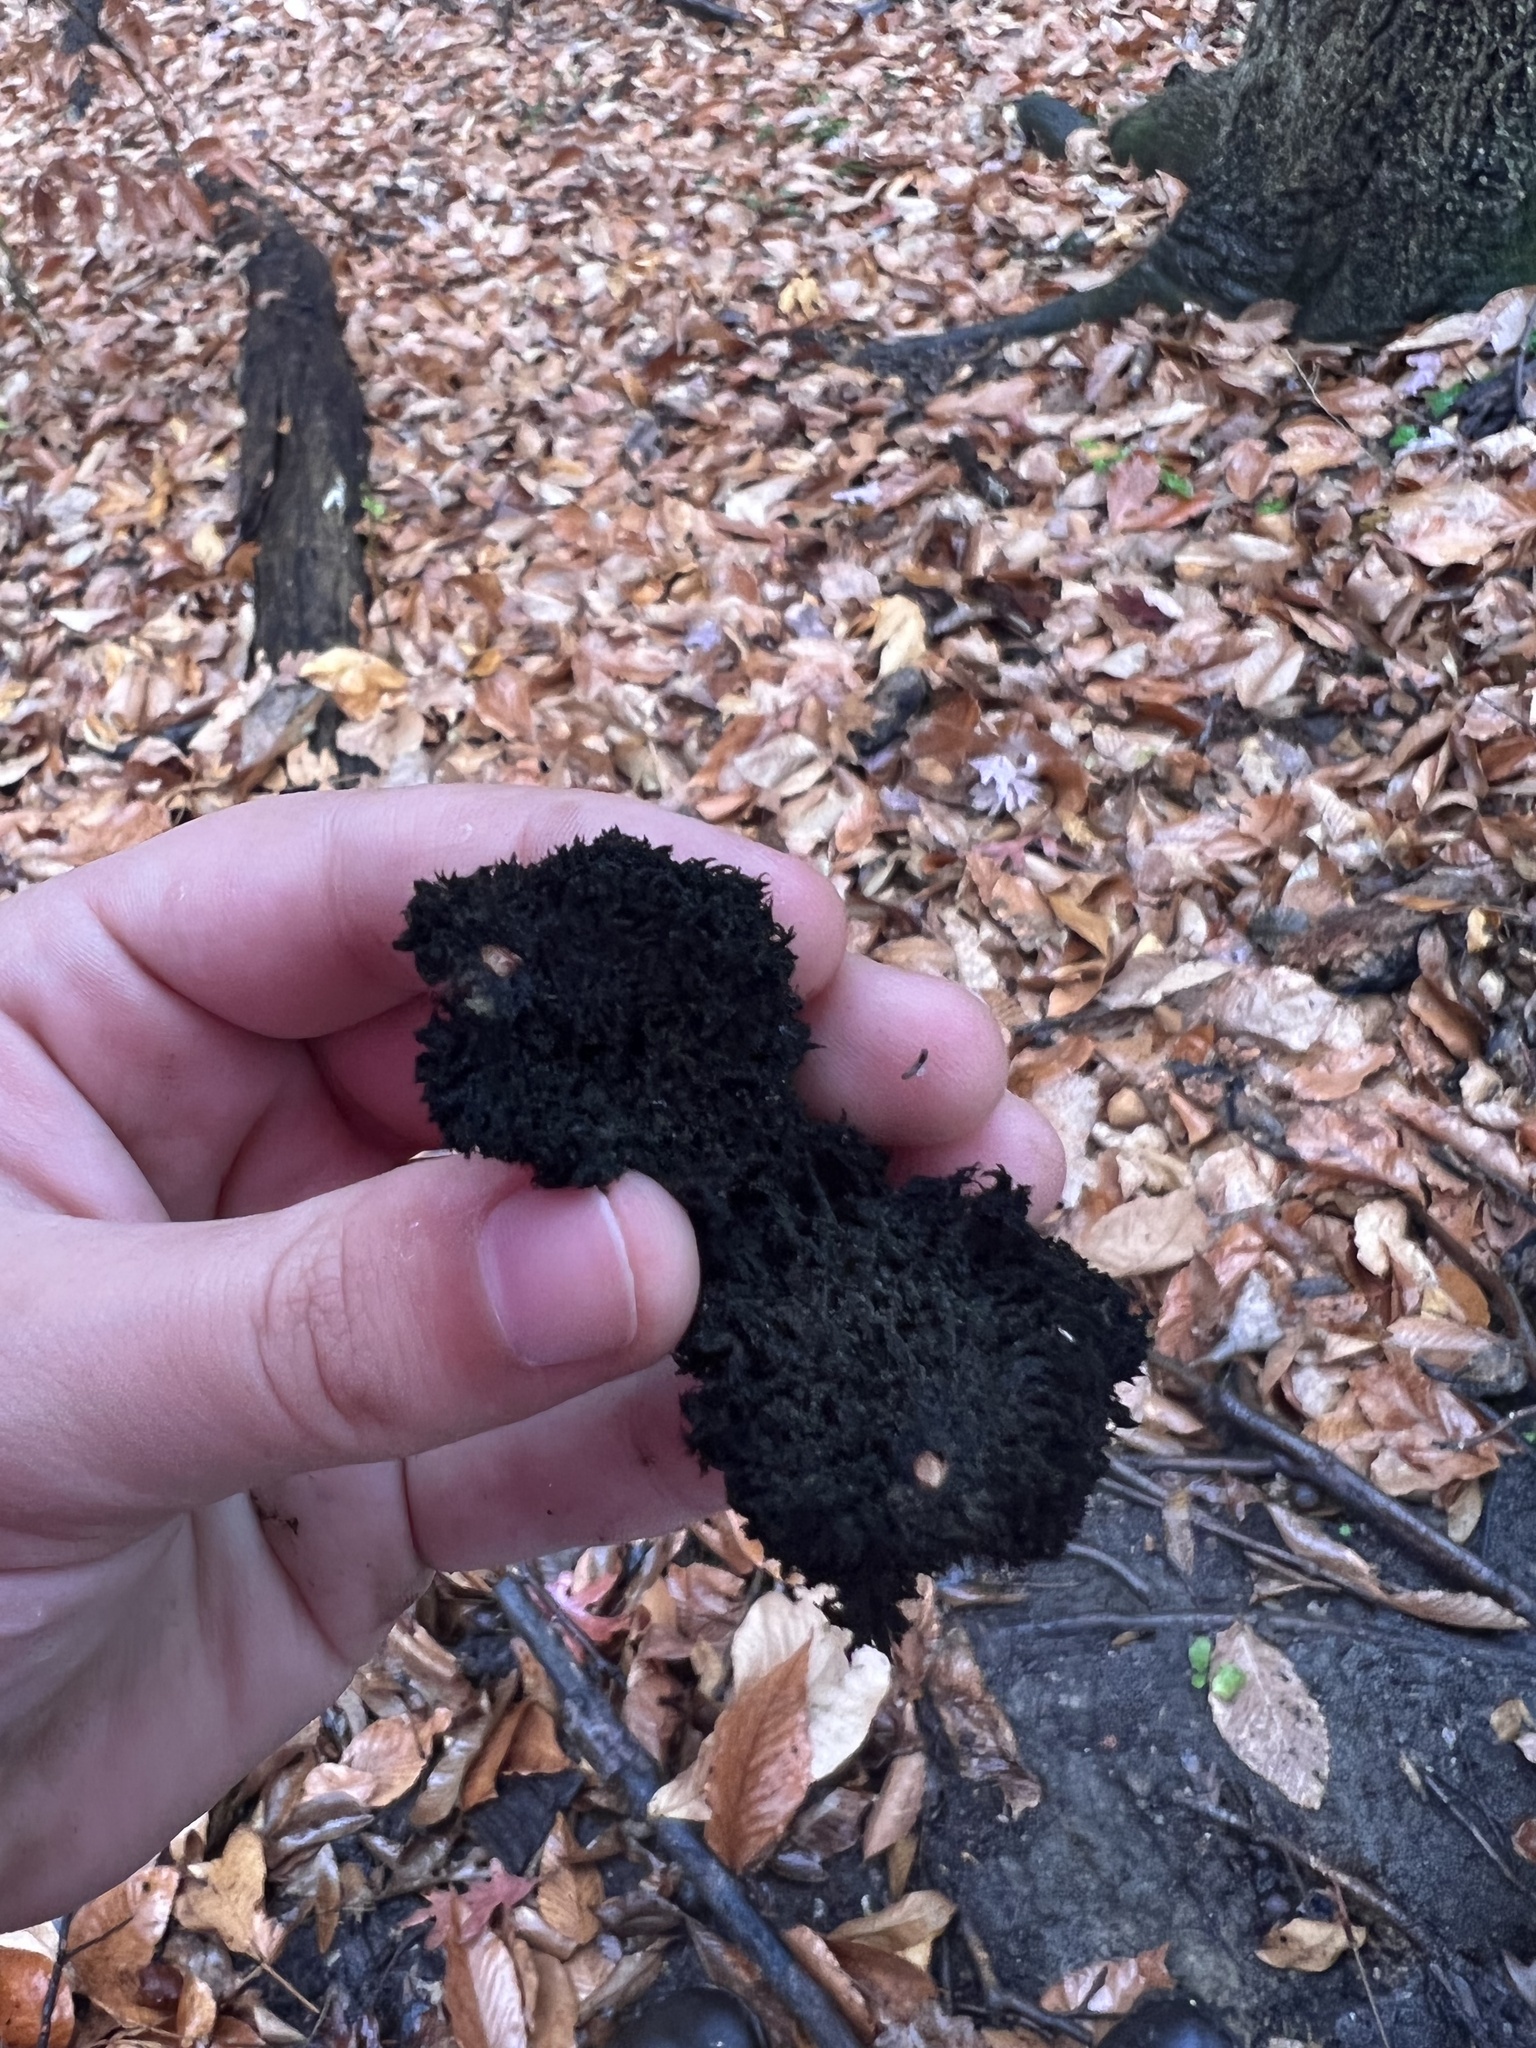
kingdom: Fungi
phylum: Ascomycota
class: Dothideomycetes
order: Capnodiales
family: Capnodiaceae
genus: Scorias
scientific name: Scorias spongiosa
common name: Black sooty mold
